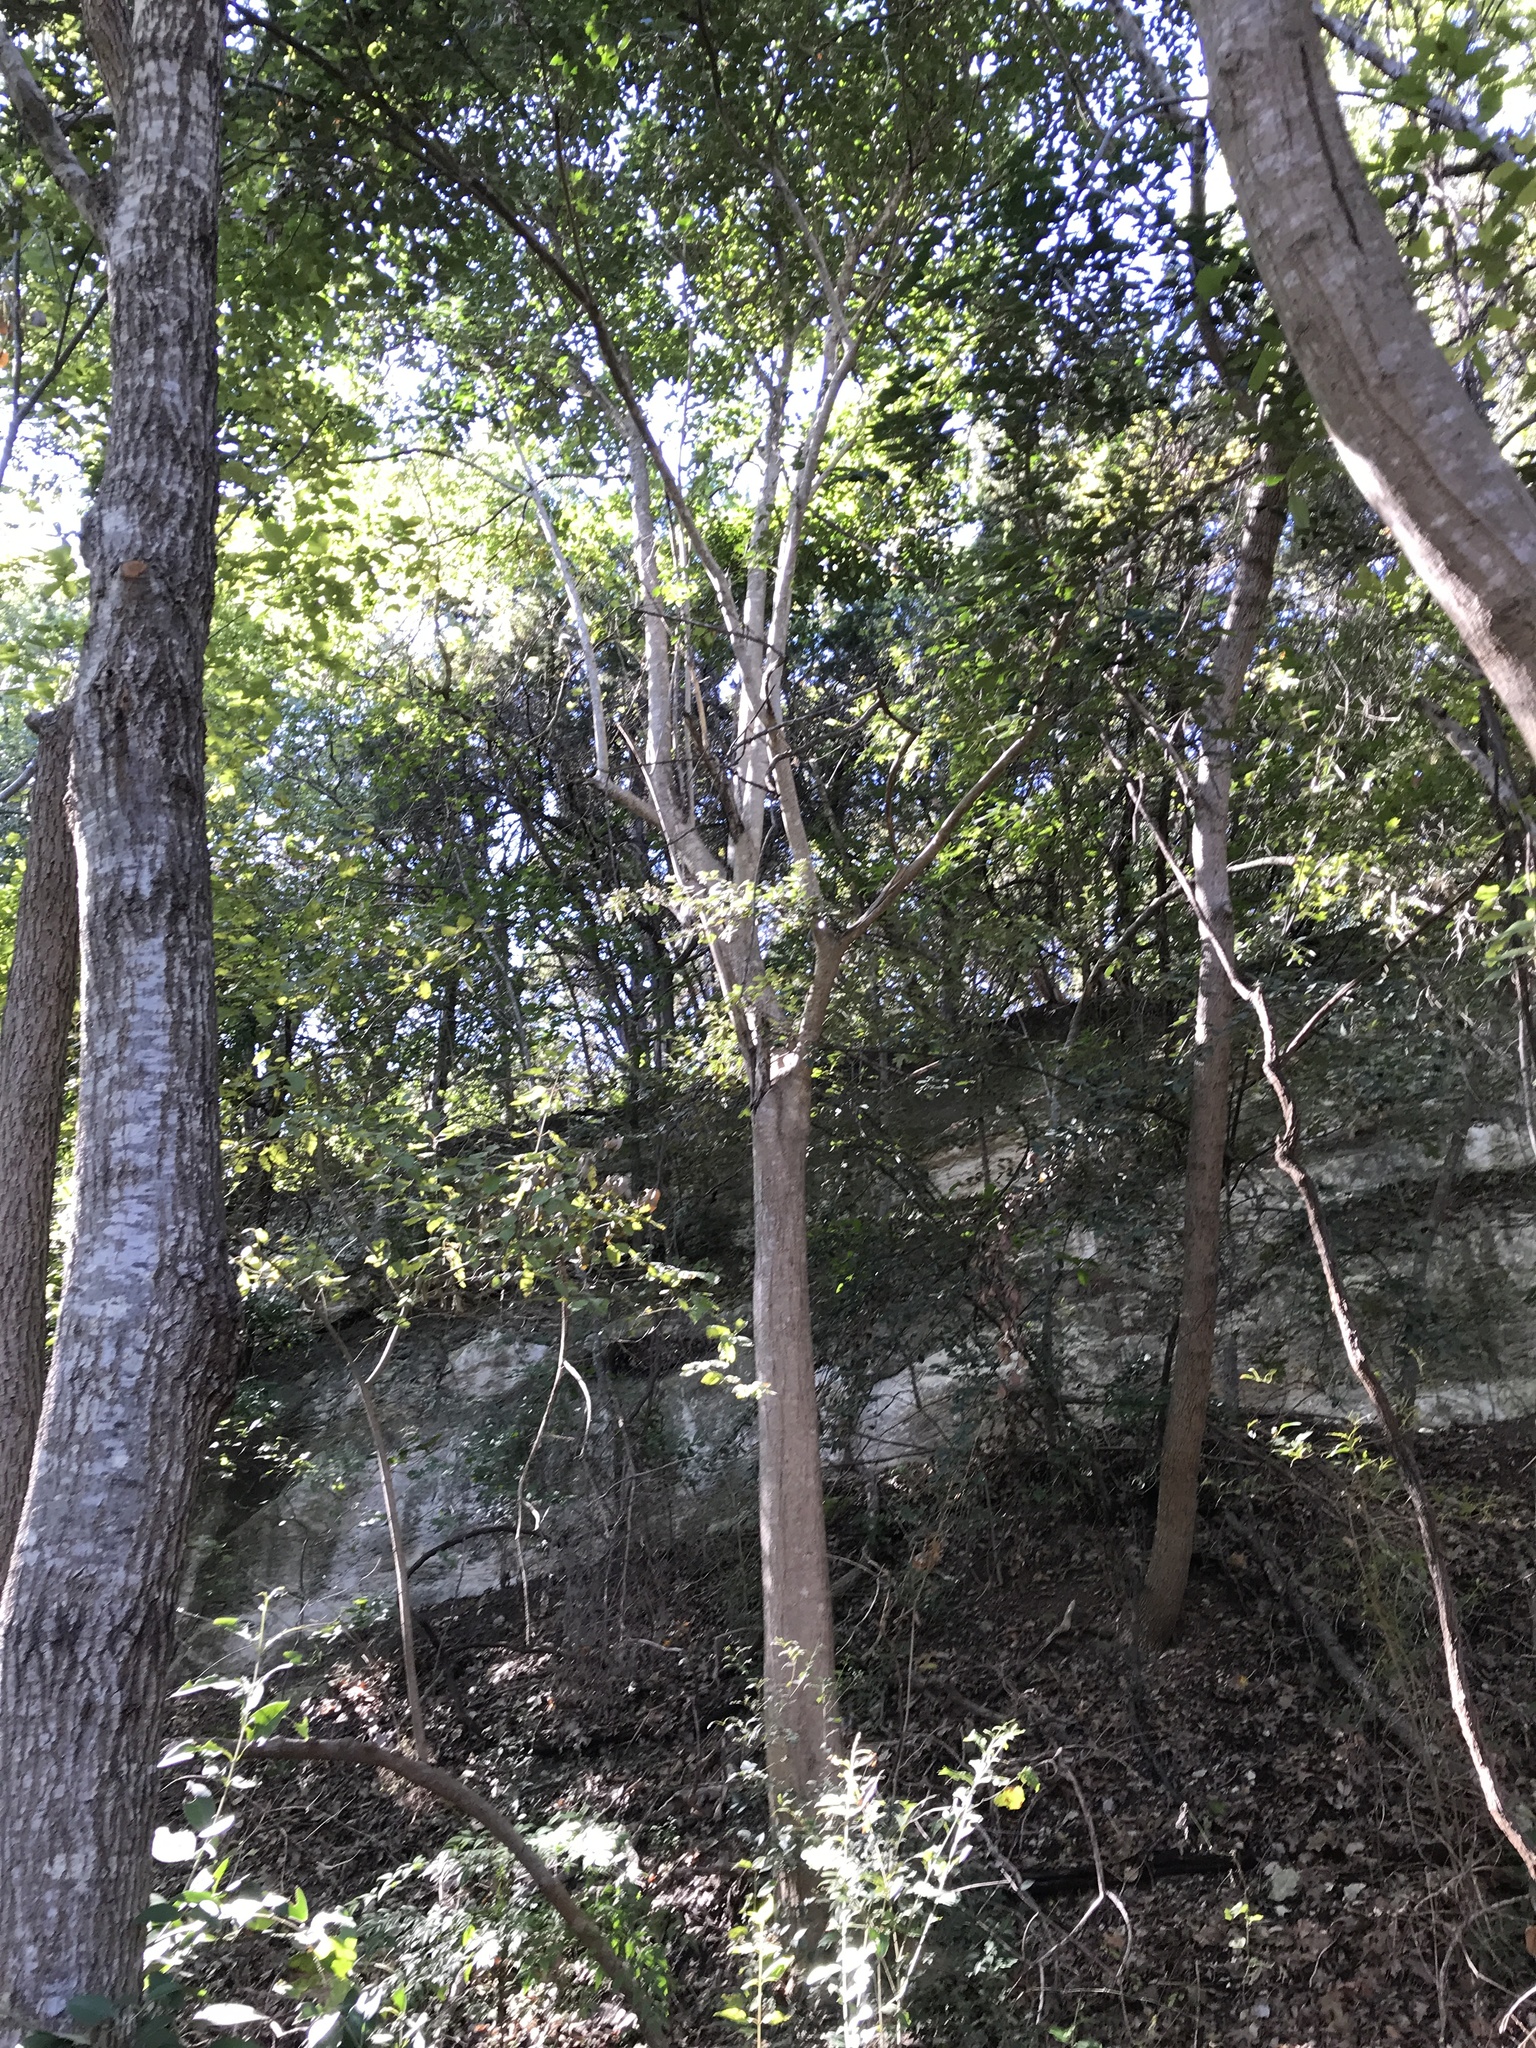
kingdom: Plantae
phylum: Tracheophyta
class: Magnoliopsida
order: Lamiales
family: Oleaceae
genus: Ligustrum
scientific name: Ligustrum lucidum
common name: Glossy privet
